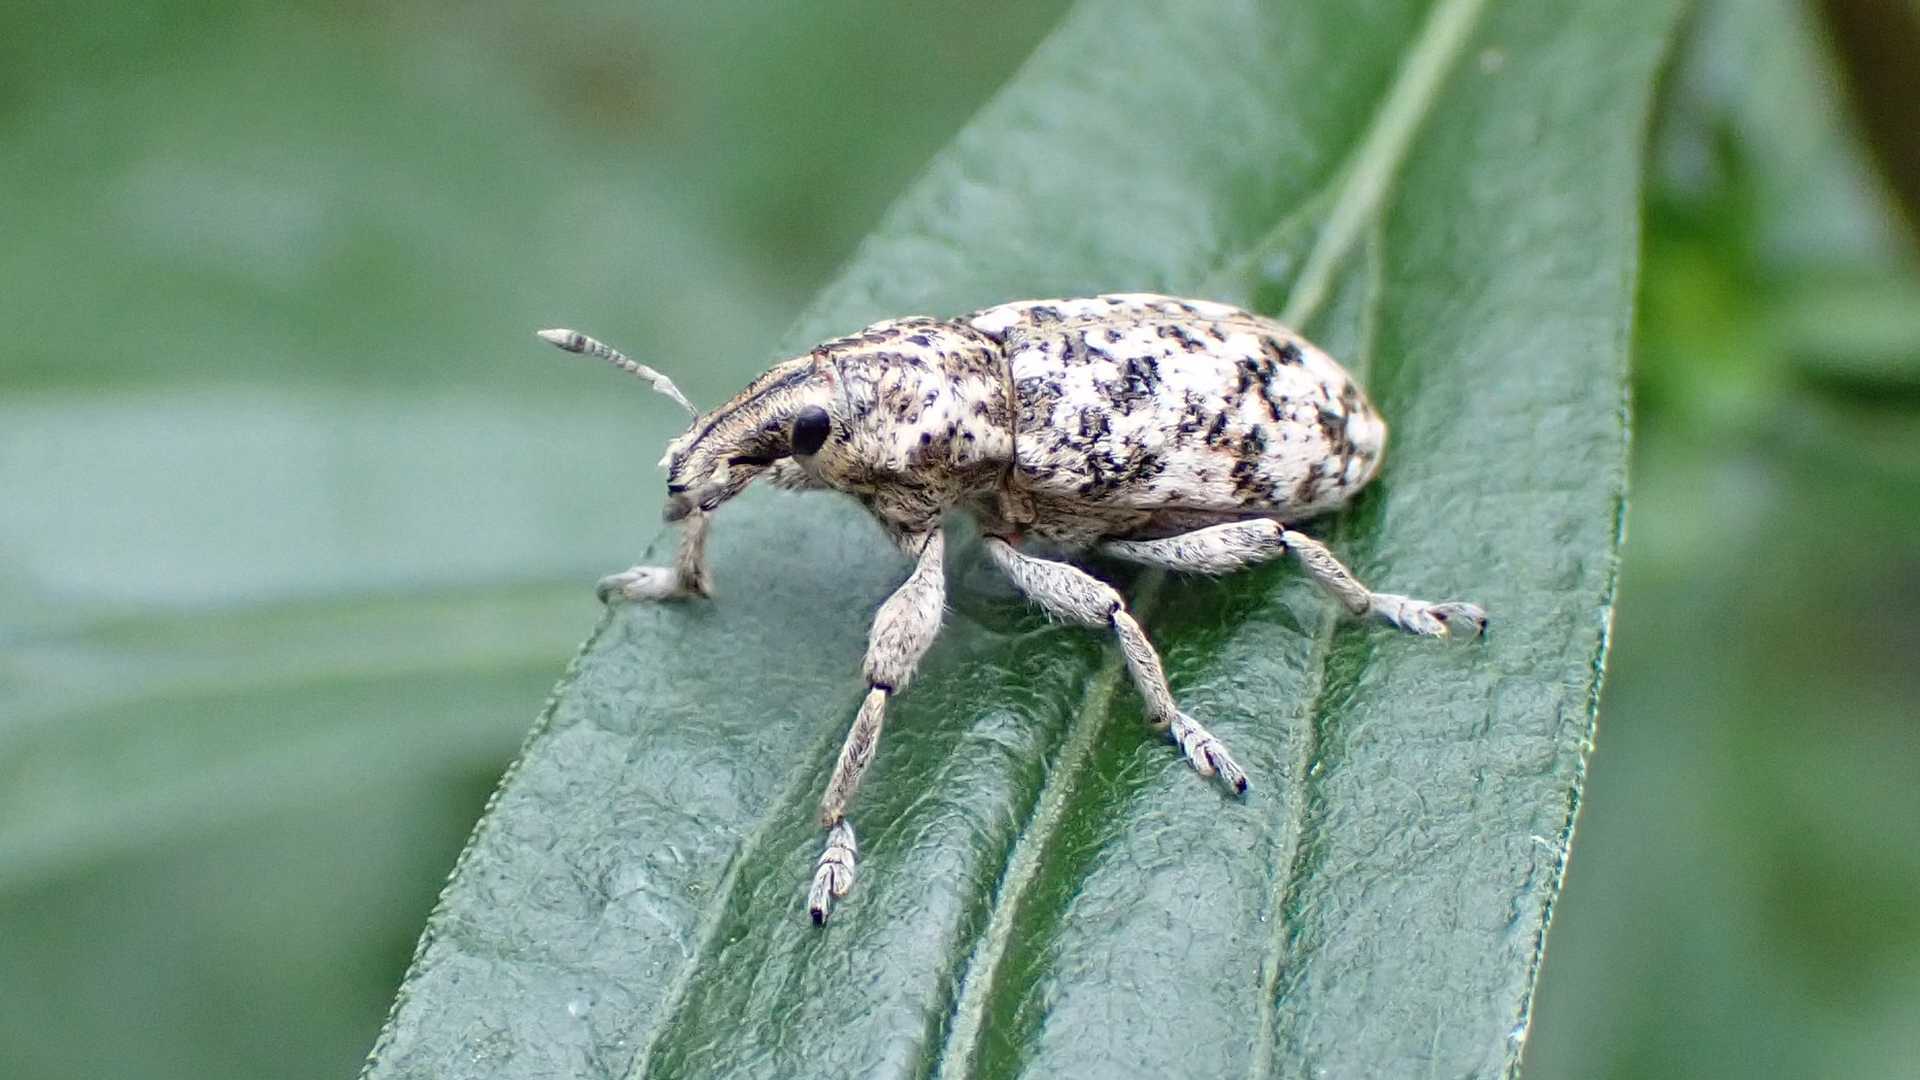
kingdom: Animalia
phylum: Arthropoda
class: Insecta
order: Coleoptera
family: Curculionidae
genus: Cyphocleonus
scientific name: Cyphocleonus dealbatus
